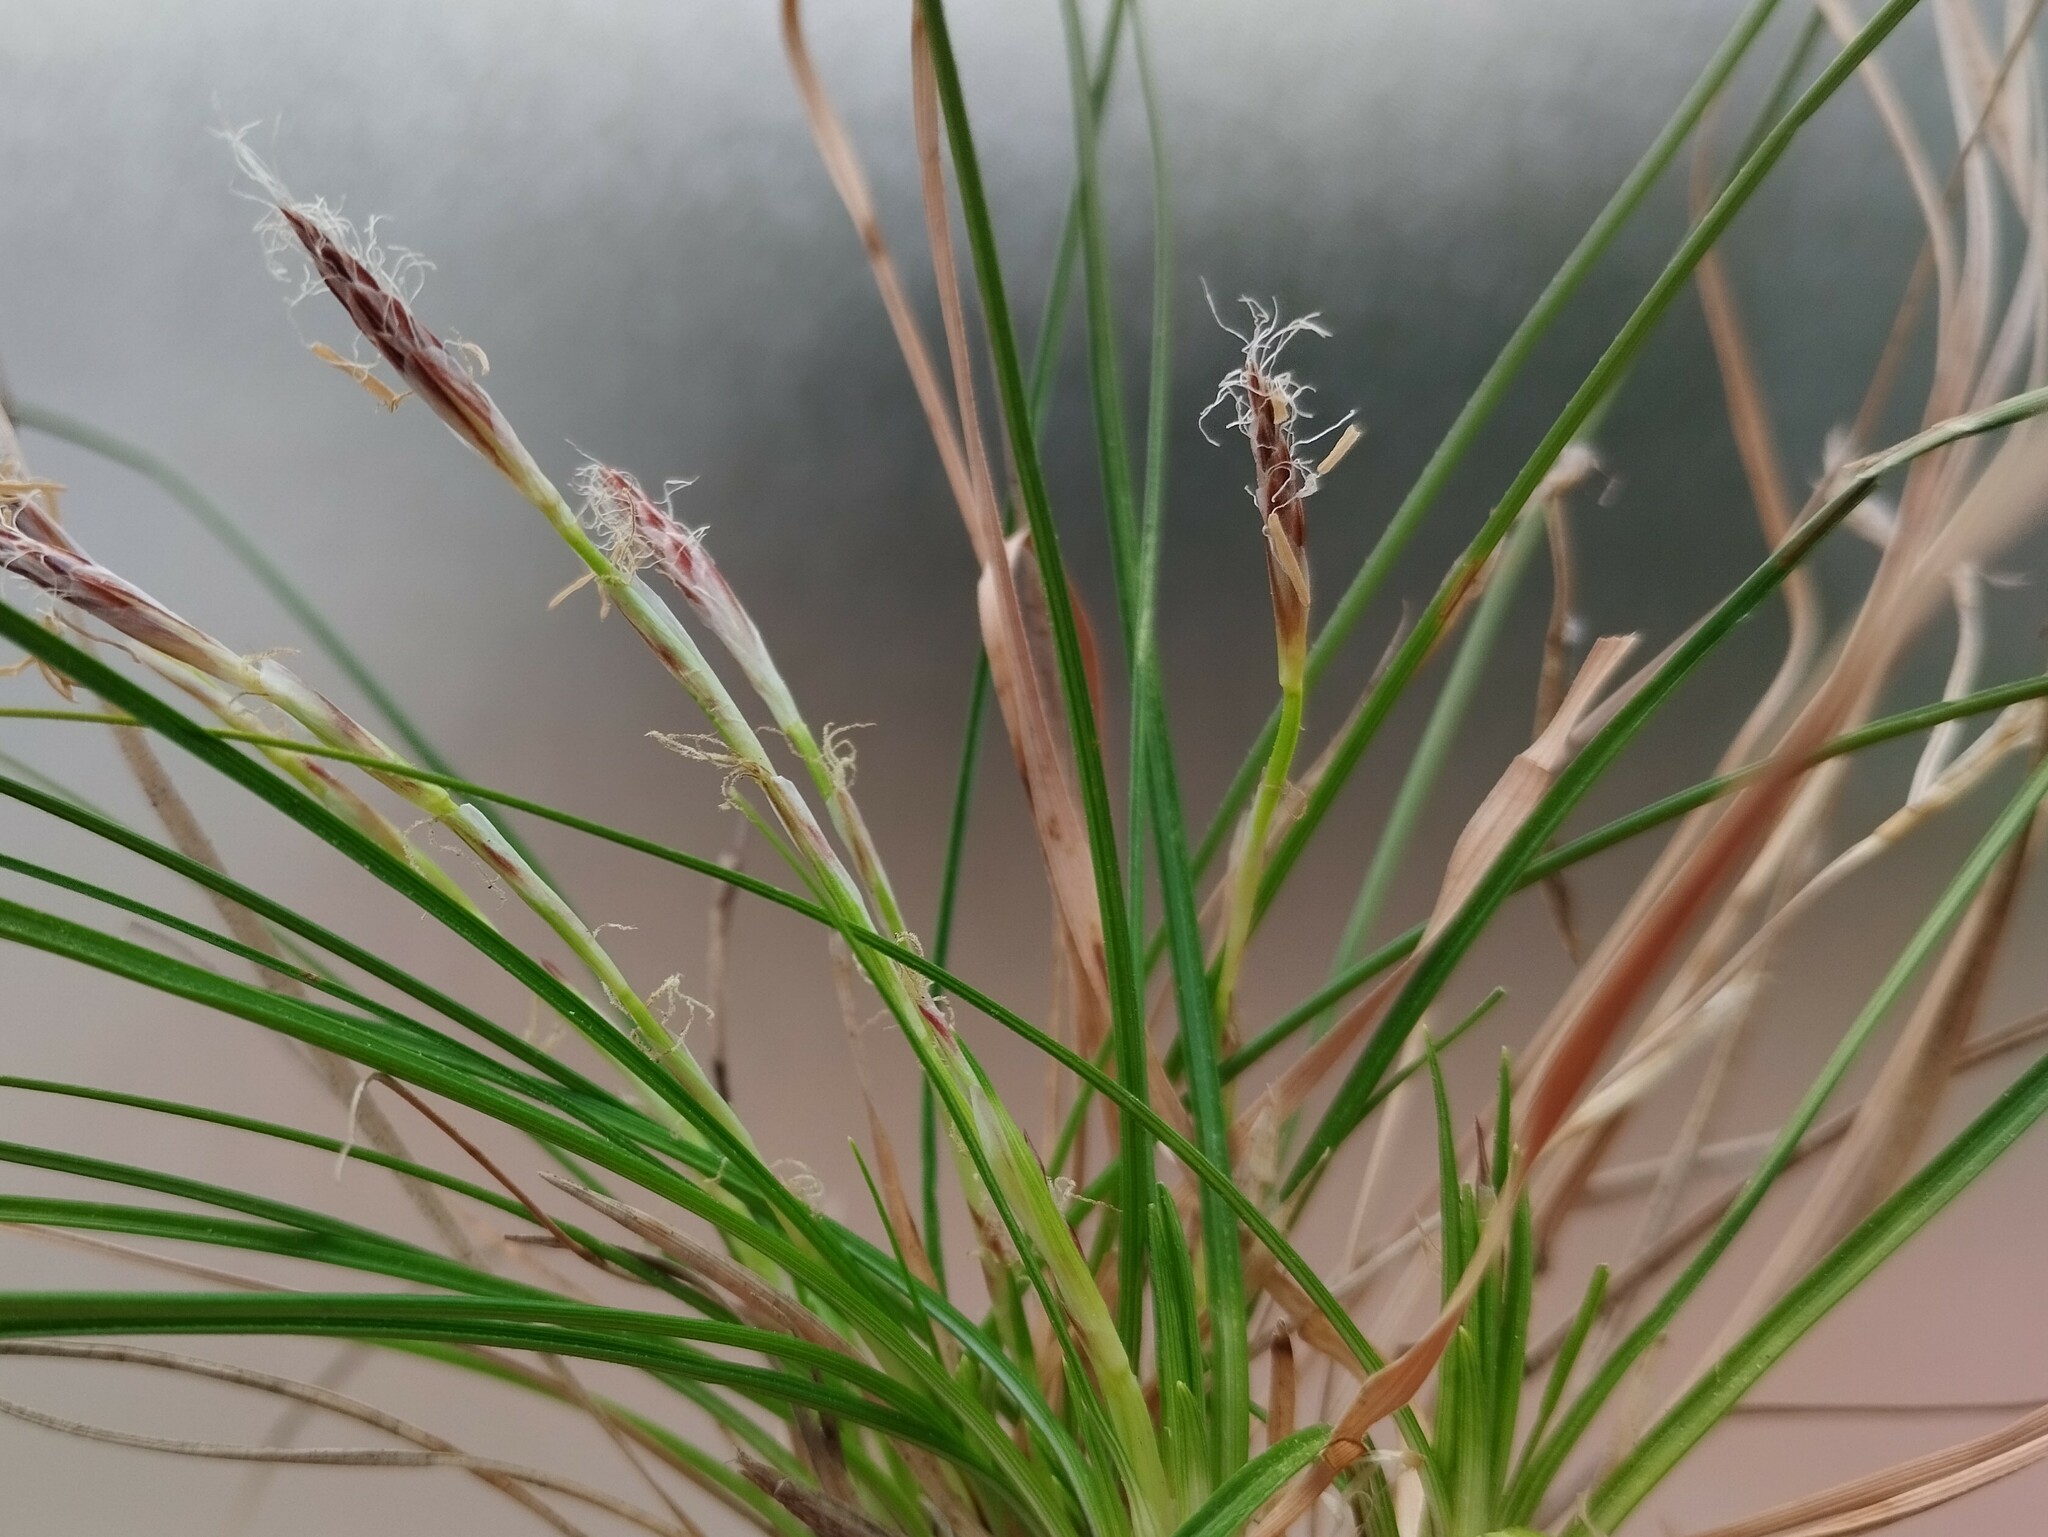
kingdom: Plantae
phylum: Tracheophyta
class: Liliopsida
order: Poales
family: Cyperaceae
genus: Carex
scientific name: Carex humilis
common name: Dwarf sedge
